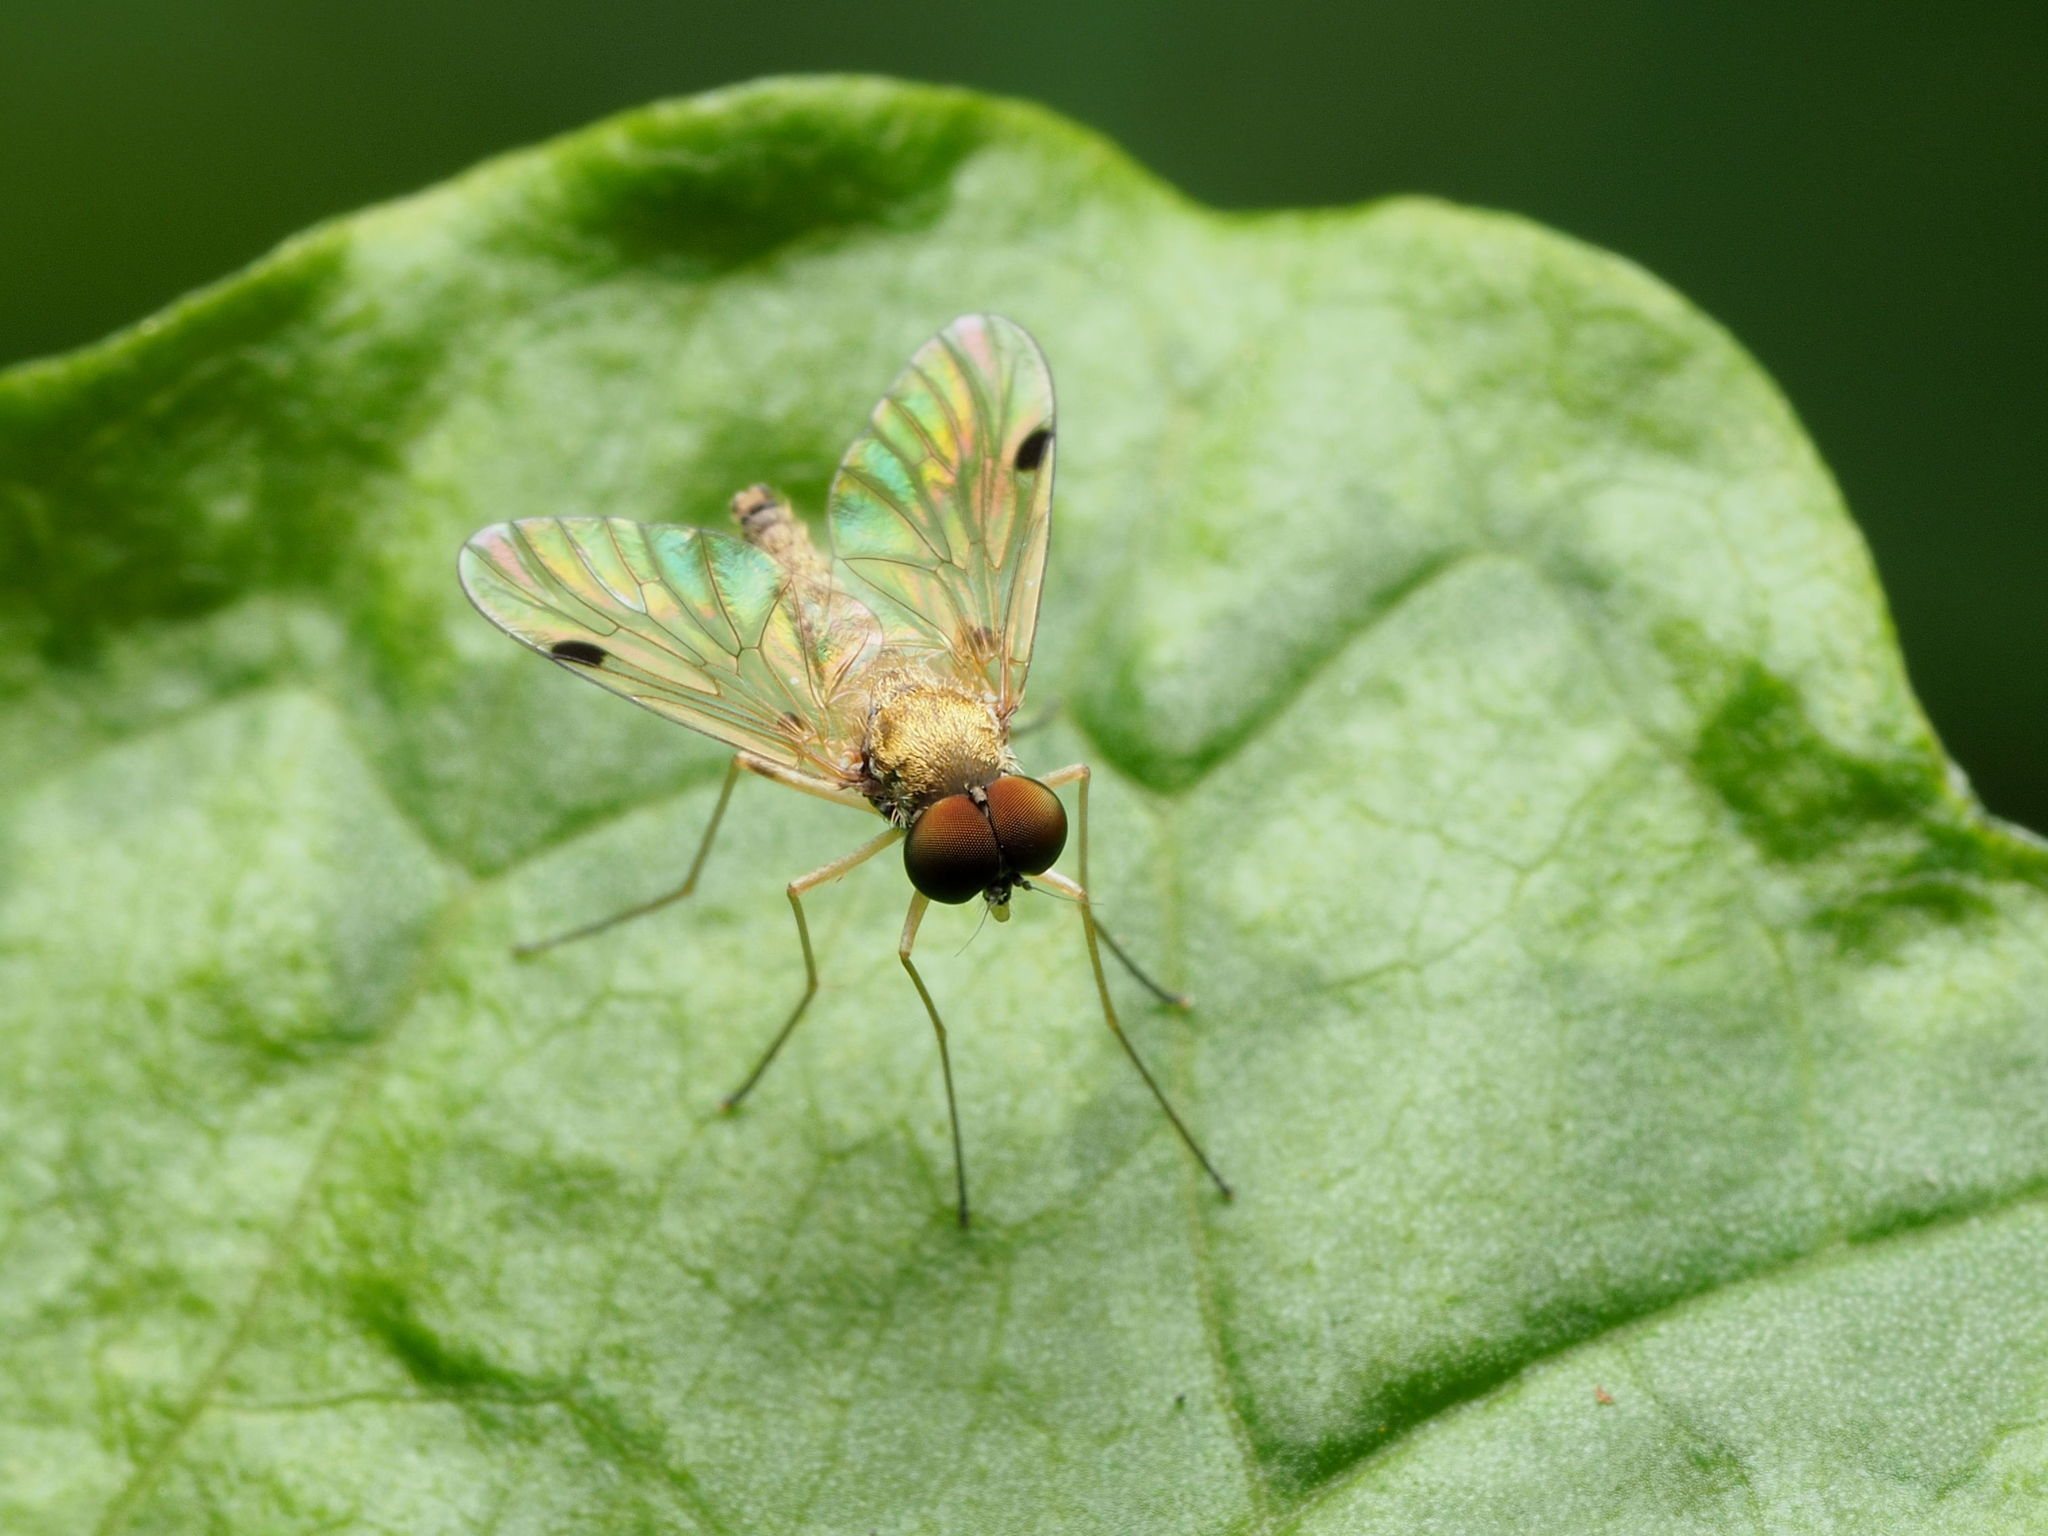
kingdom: Animalia
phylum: Arthropoda
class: Insecta
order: Diptera
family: Rhagionidae
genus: Chrysopilus
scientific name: Chrysopilus modestus
